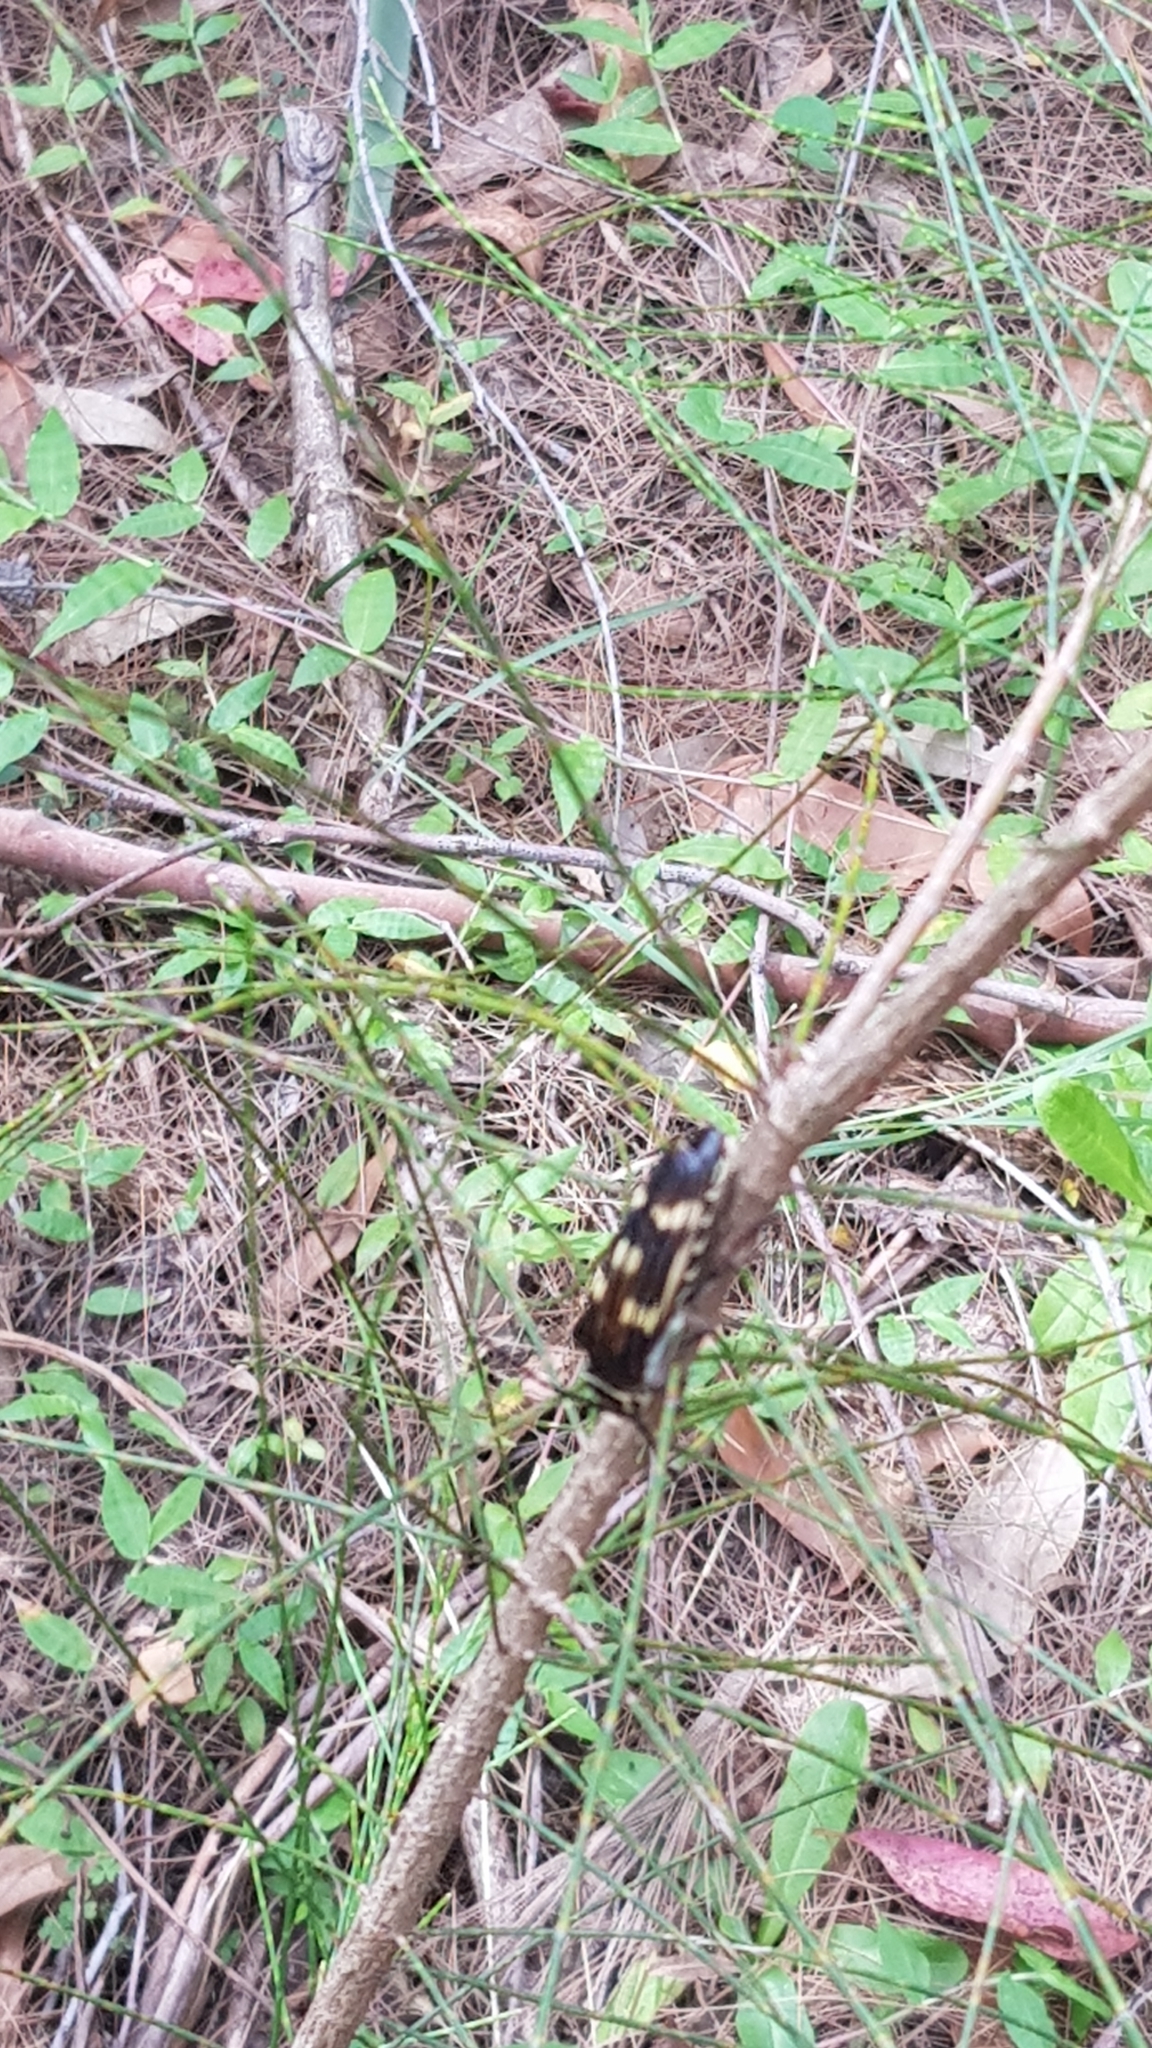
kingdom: Animalia
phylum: Arthropoda
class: Insecta
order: Coleoptera
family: Cerambycidae
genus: Tragocerus
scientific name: Tragocerus fasciatus
